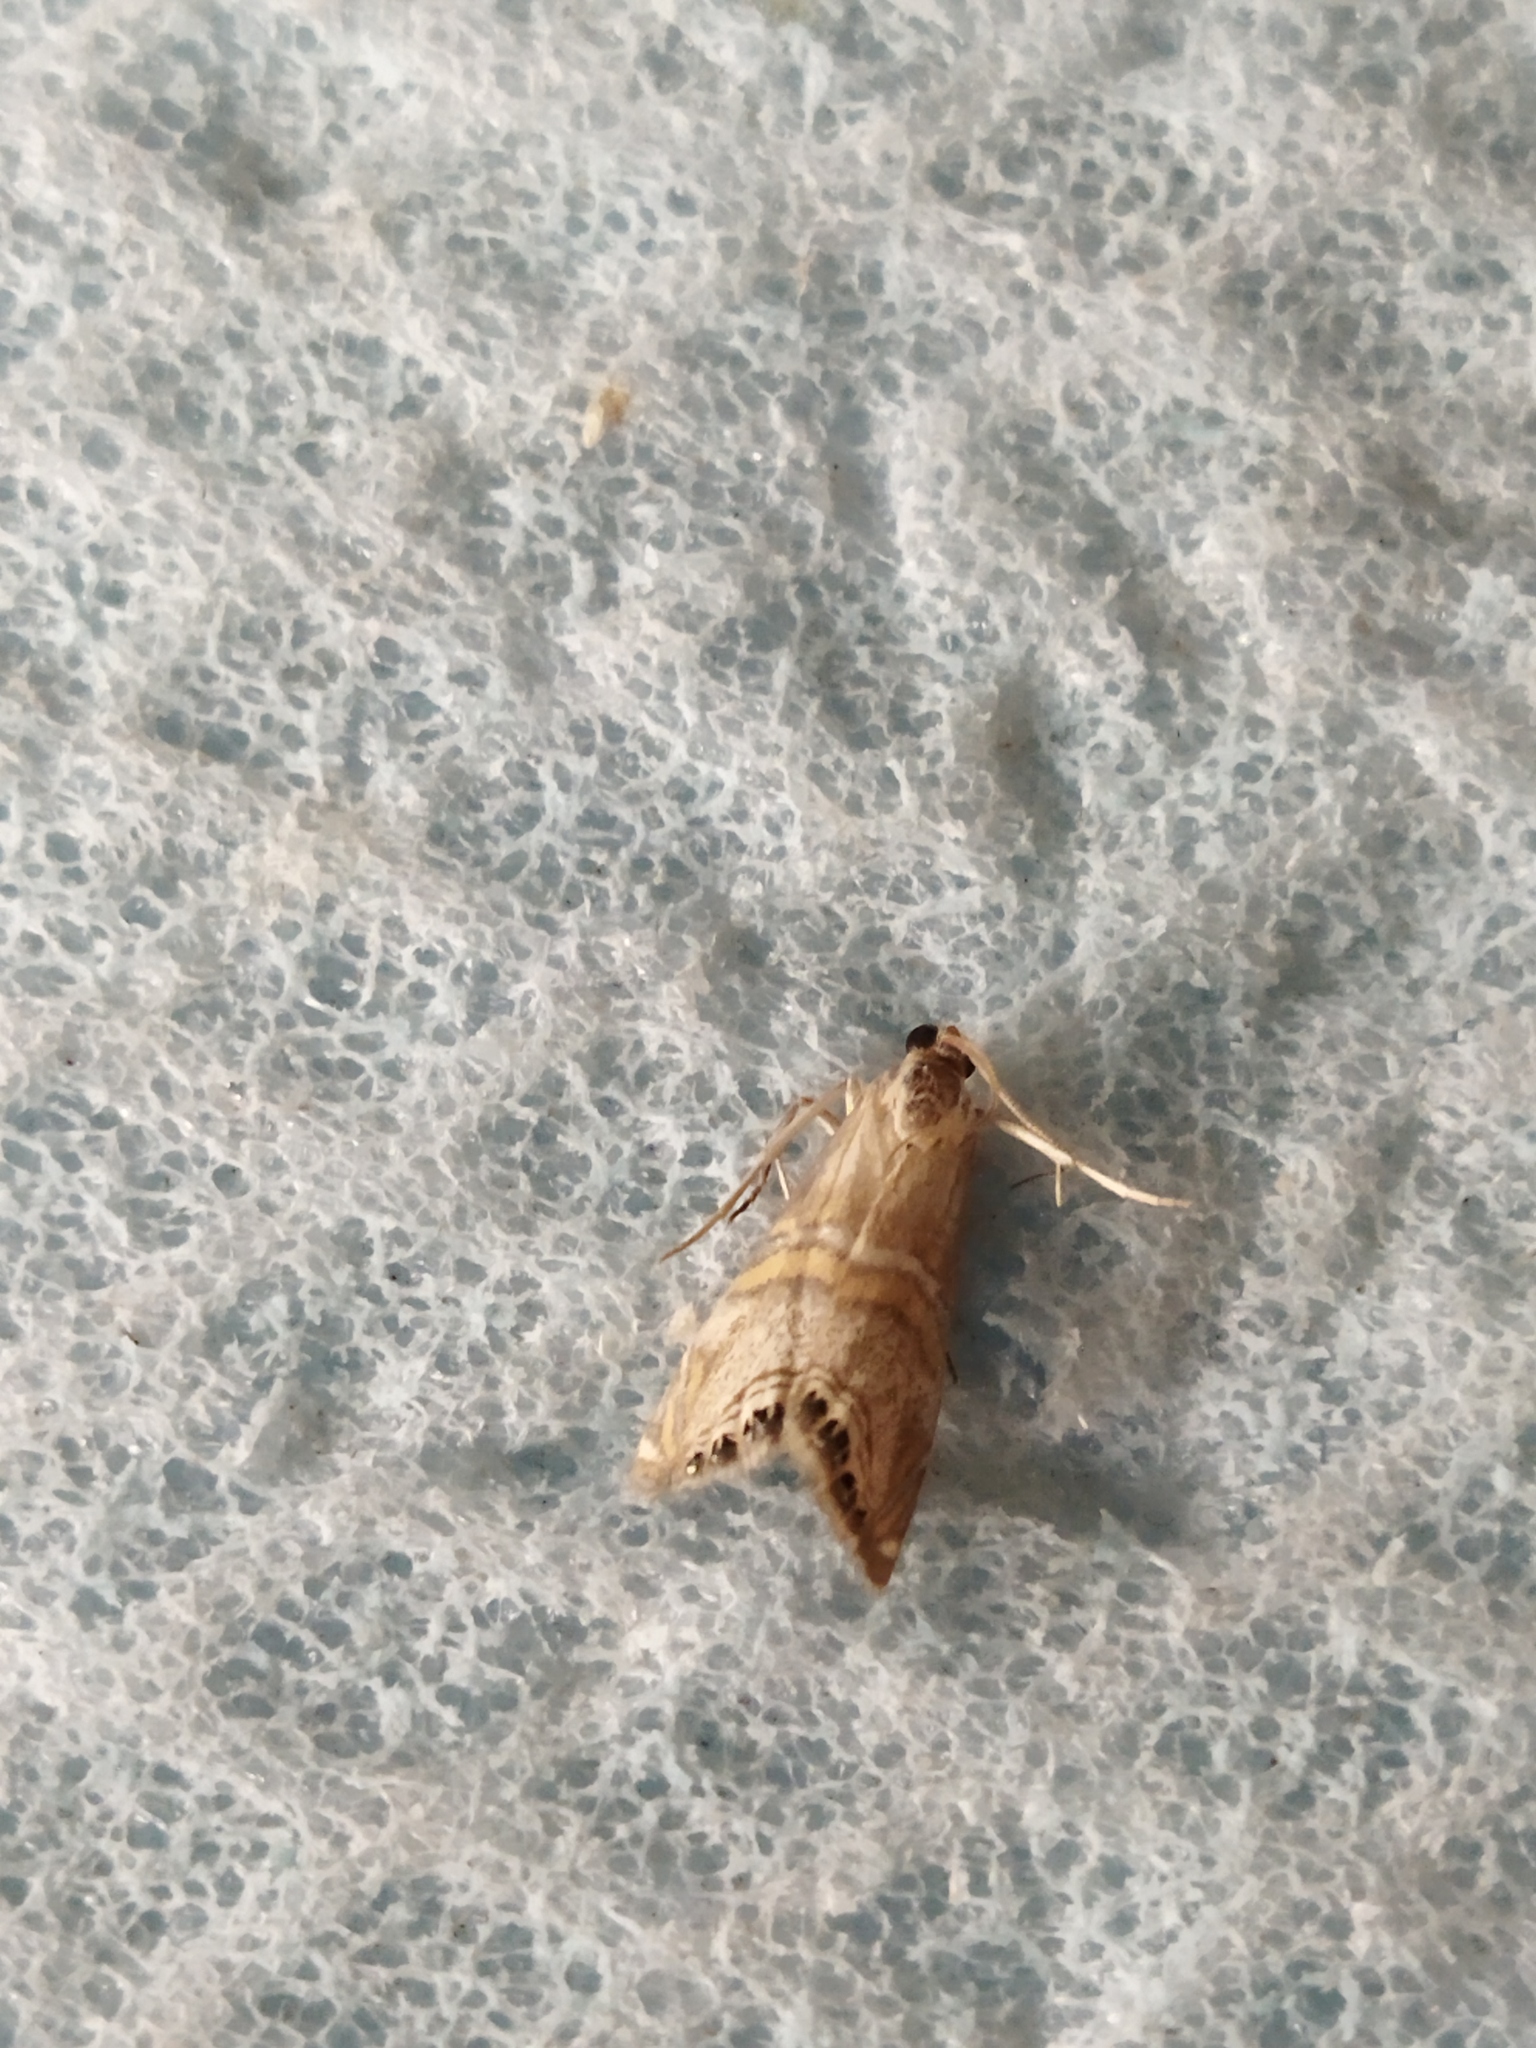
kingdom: Animalia
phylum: Arthropoda
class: Insecta
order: Lepidoptera
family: Crambidae
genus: Euchromius
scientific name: Euchromius bella
